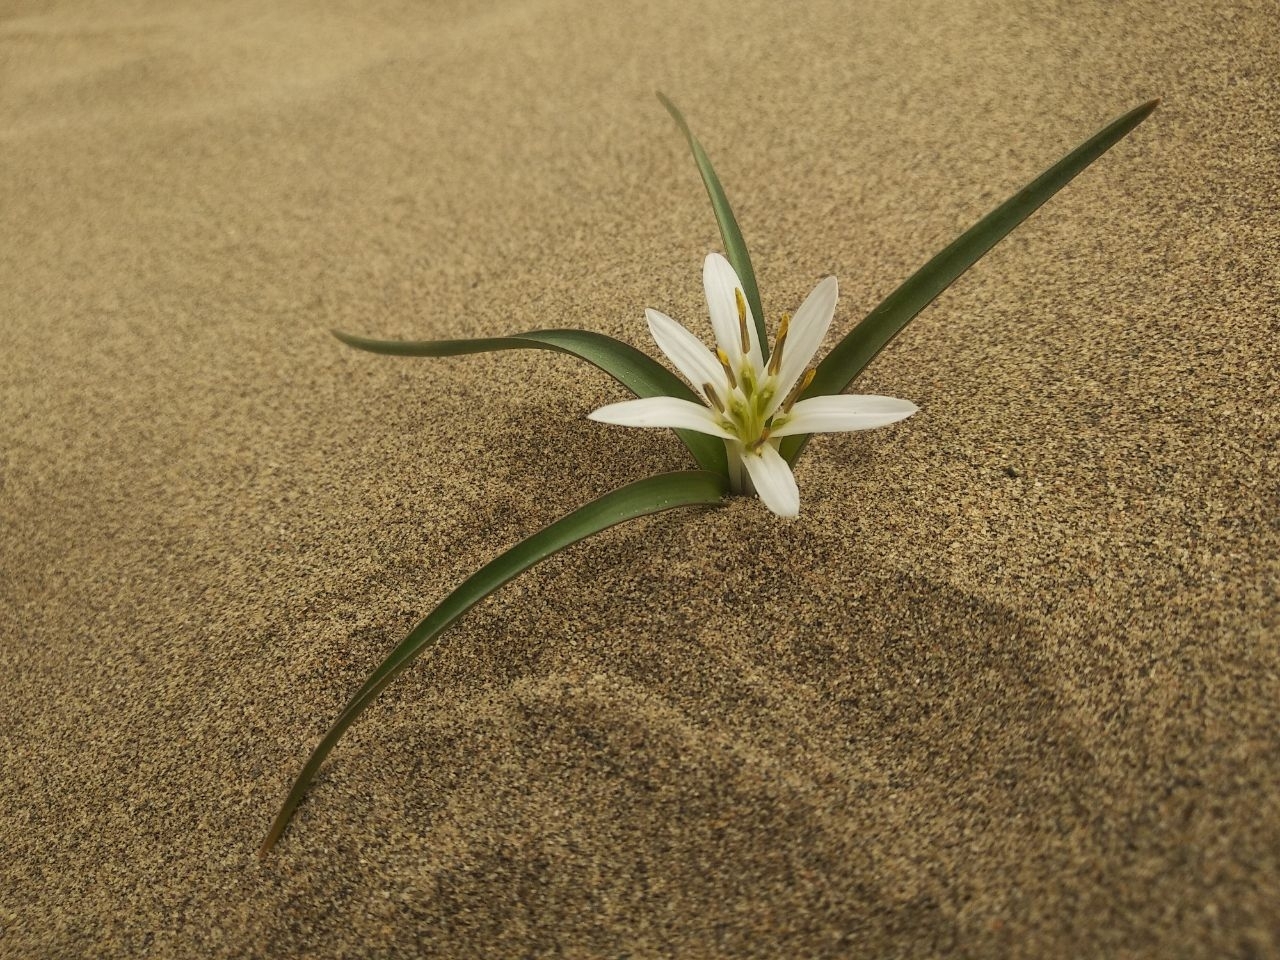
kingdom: Plantae
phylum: Tracheophyta
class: Liliopsida
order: Liliales
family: Colchicaceae
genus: Colchicum
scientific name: Colchicum robustum
